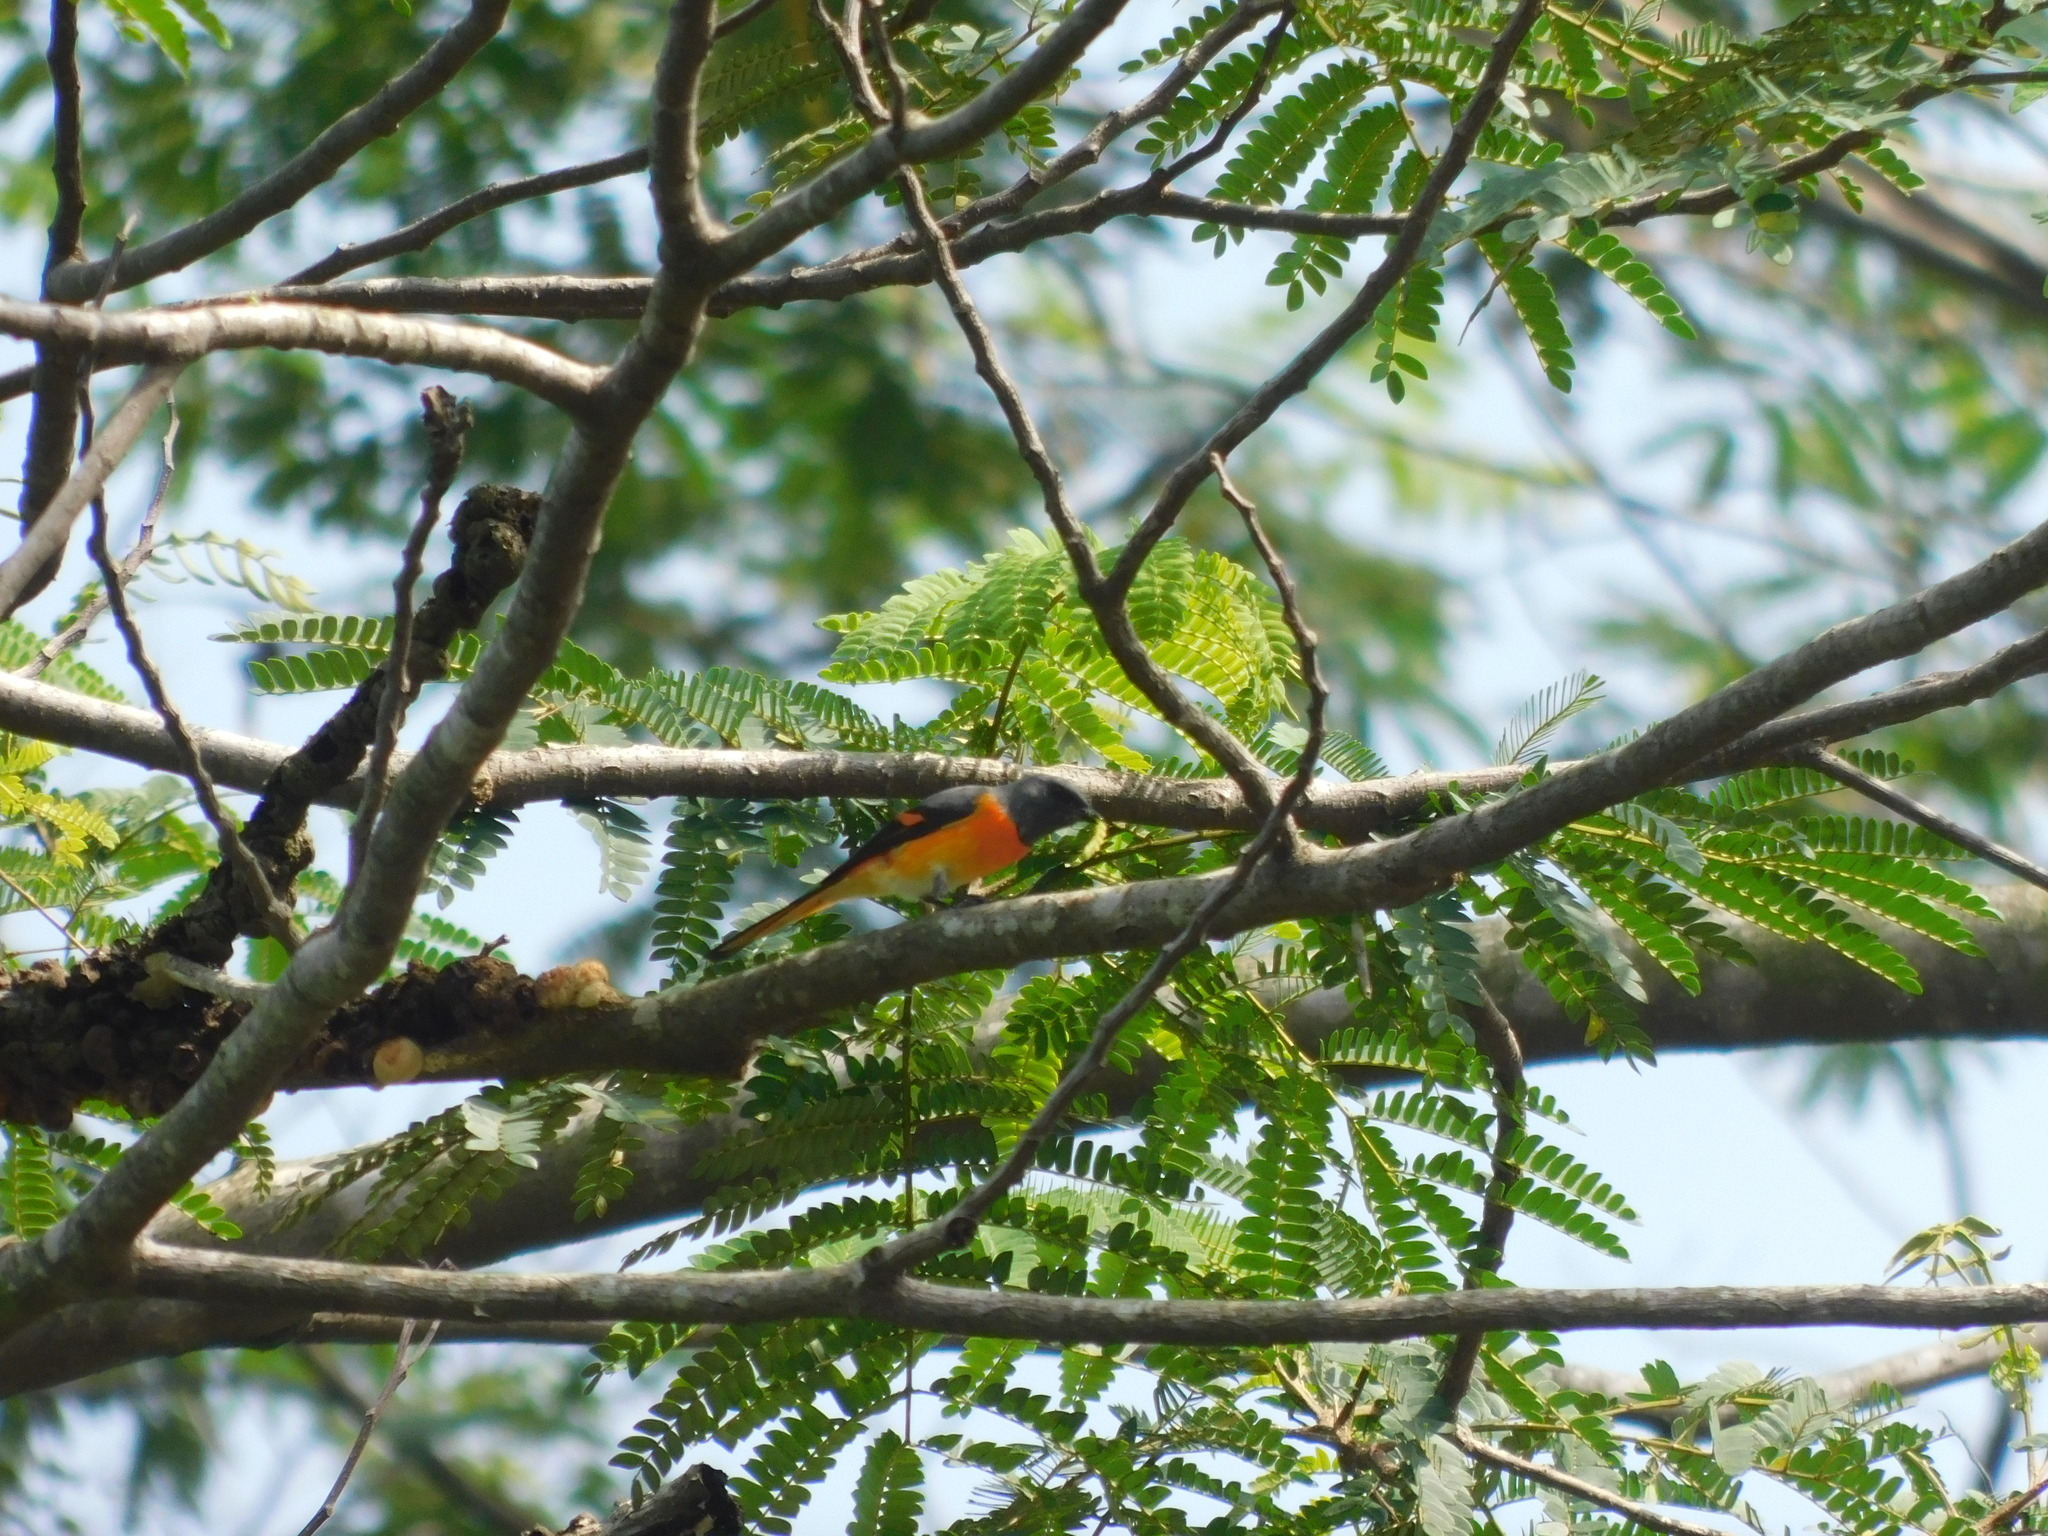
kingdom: Animalia
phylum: Chordata
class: Aves
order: Passeriformes
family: Campephagidae
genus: Pericrocotus
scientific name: Pericrocotus cinnamomeus
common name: Small minivet
